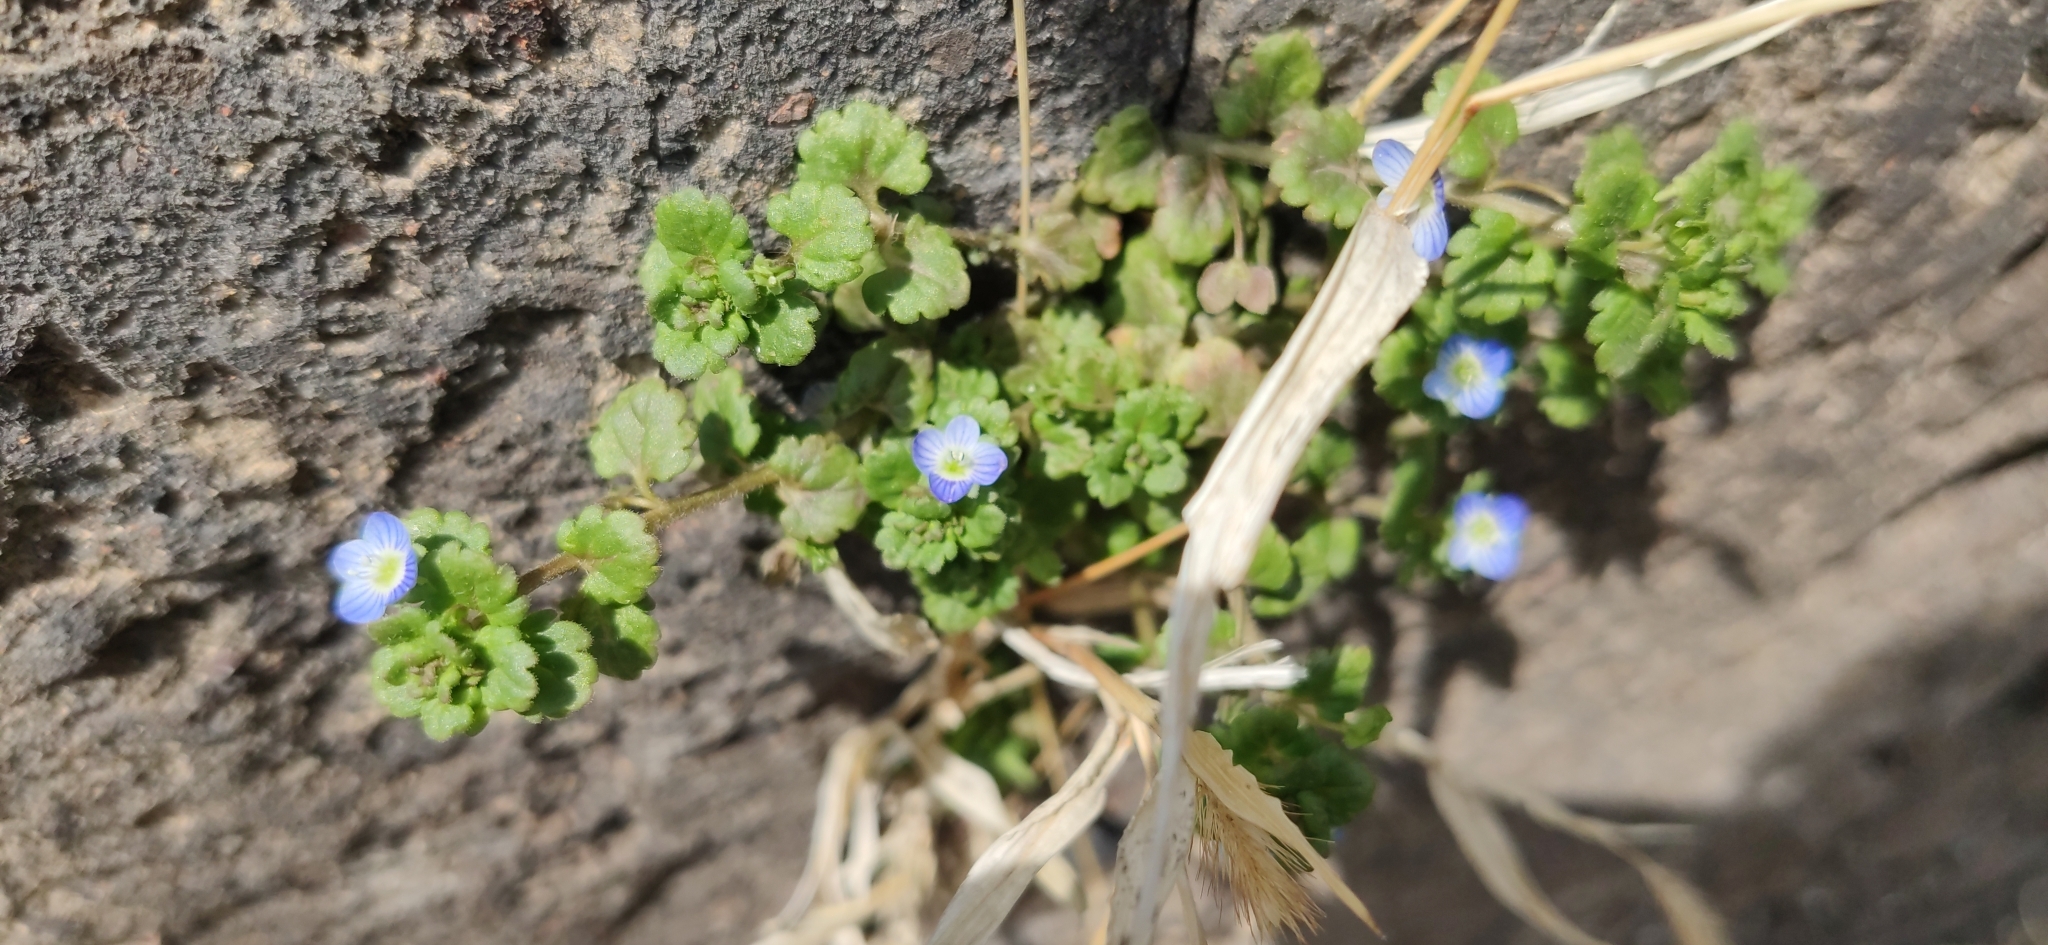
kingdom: Plantae
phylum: Tracheophyta
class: Magnoliopsida
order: Lamiales
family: Plantaginaceae
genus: Veronica
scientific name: Veronica polita
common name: Grey field-speedwell
